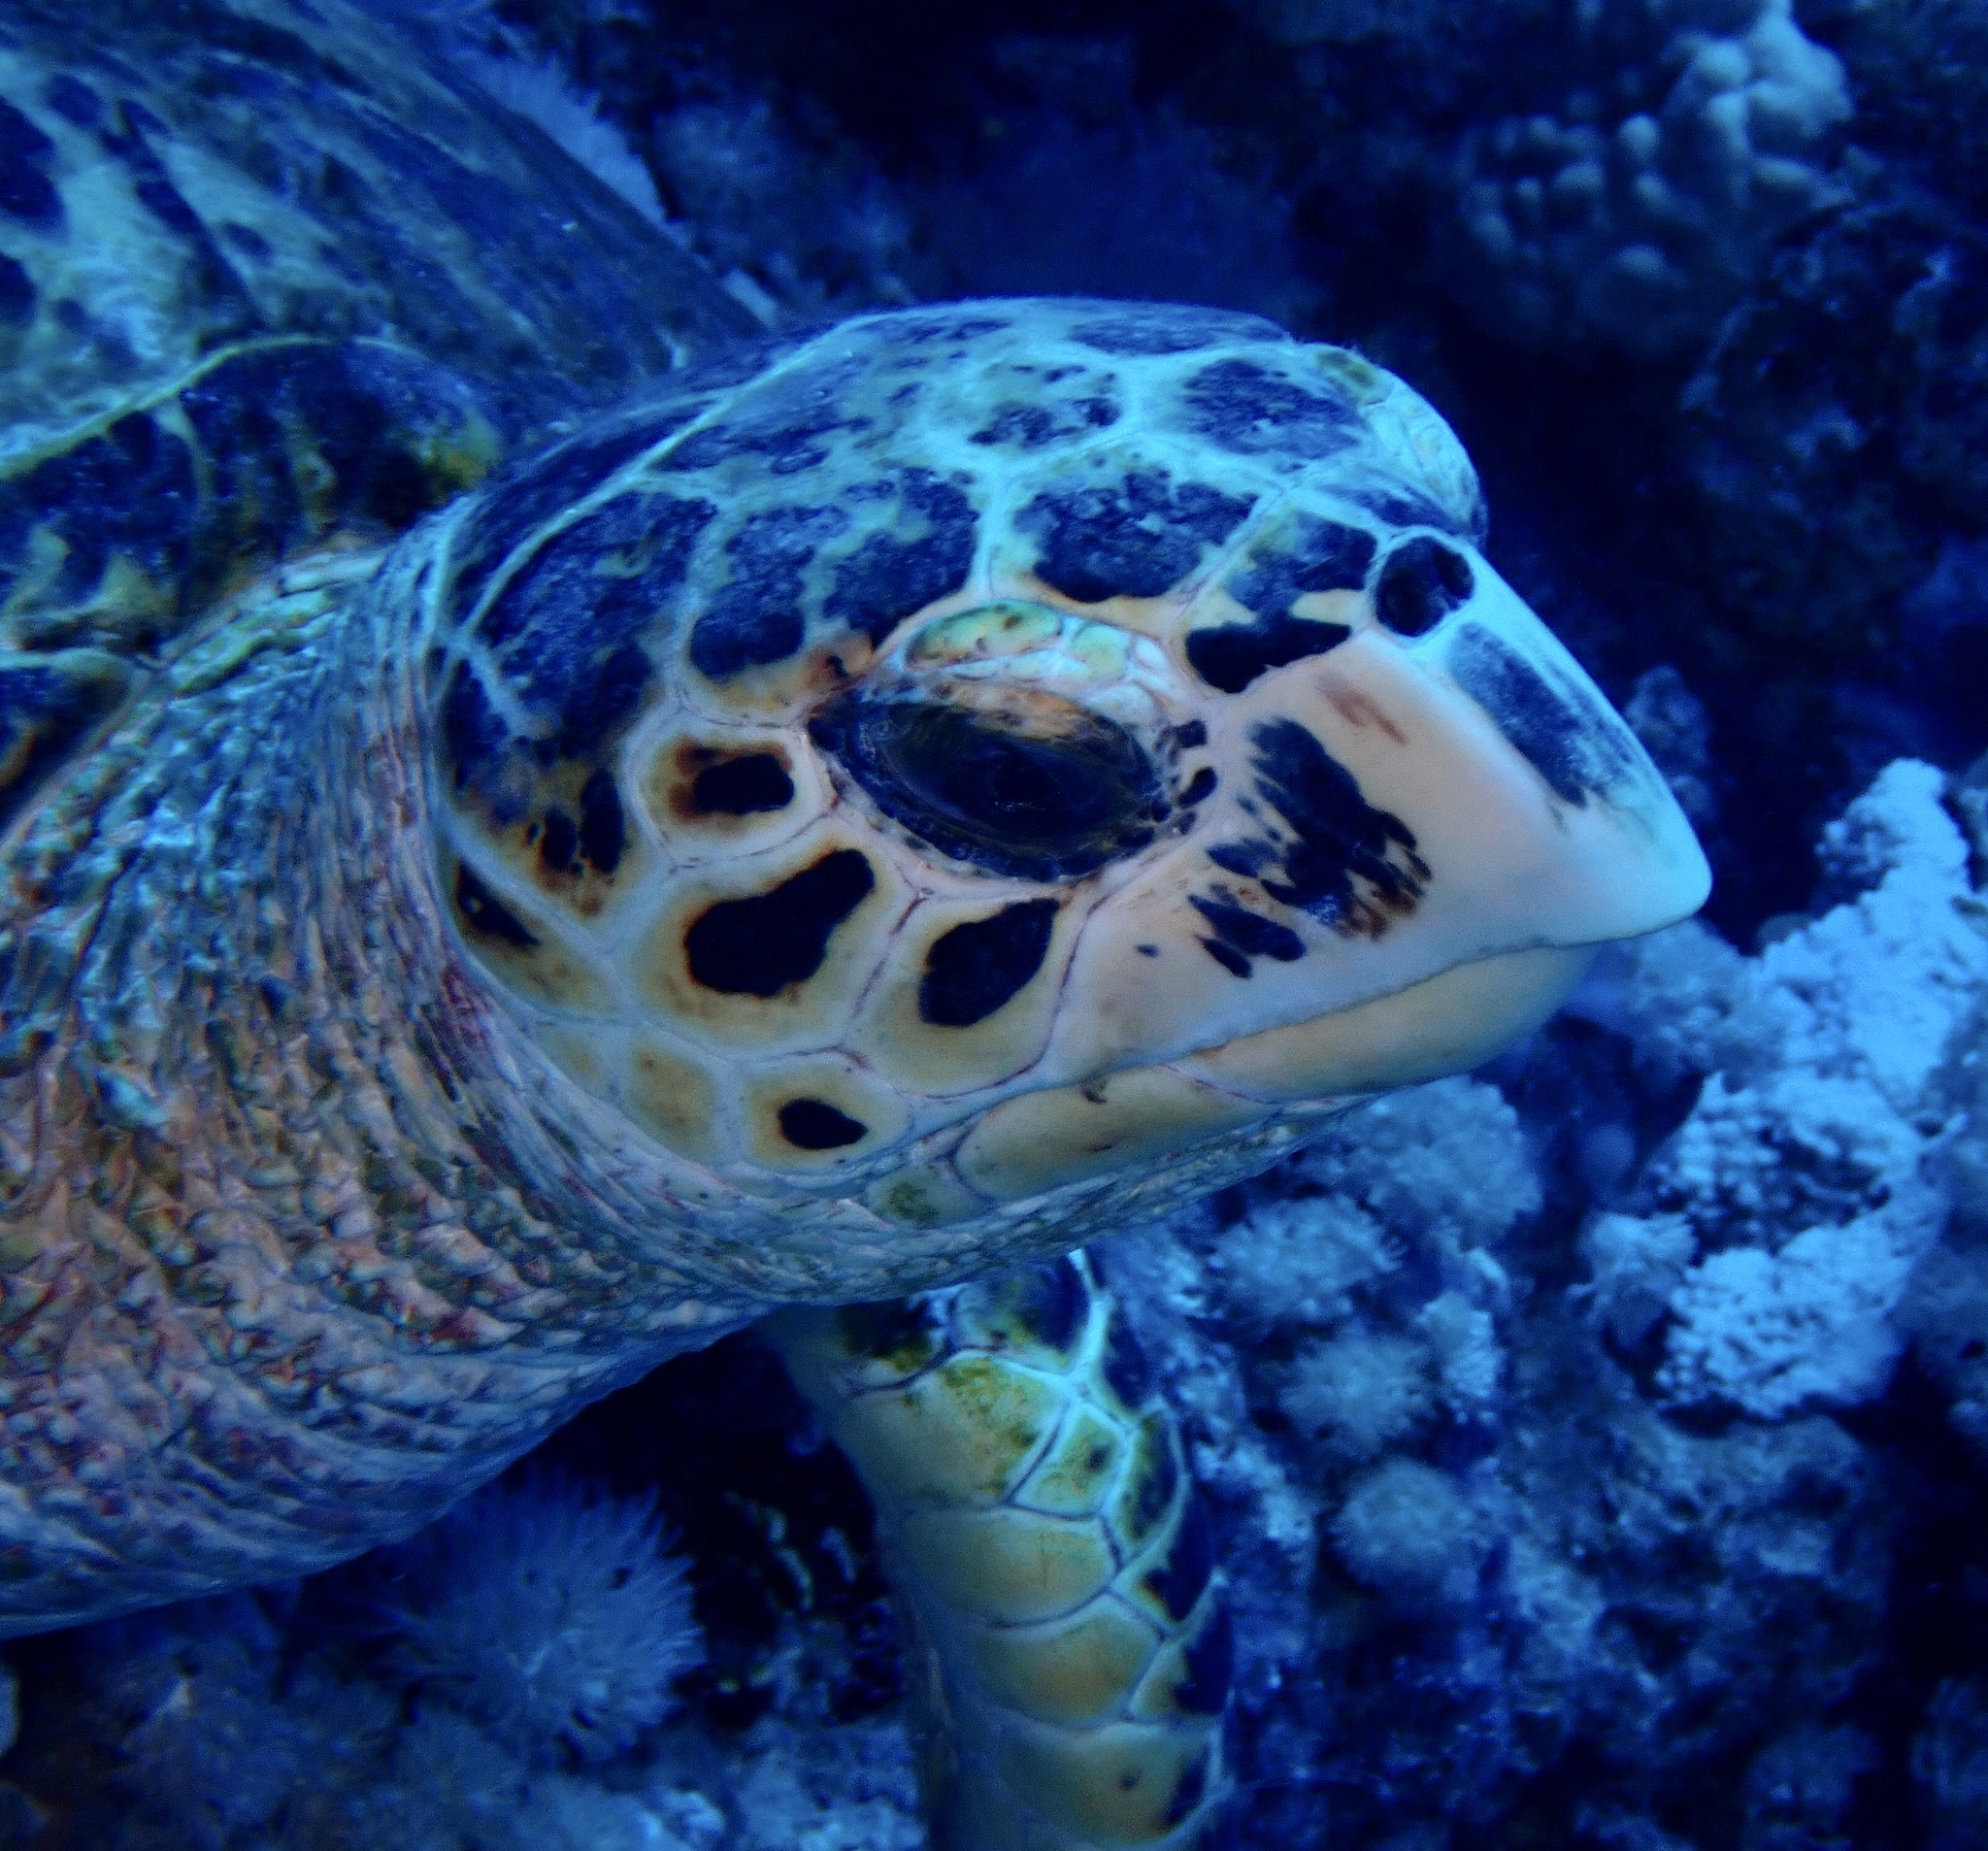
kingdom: Animalia
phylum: Chordata
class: Testudines
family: Cheloniidae
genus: Eretmochelys
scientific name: Eretmochelys imbricata
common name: Hawksbill turtle
